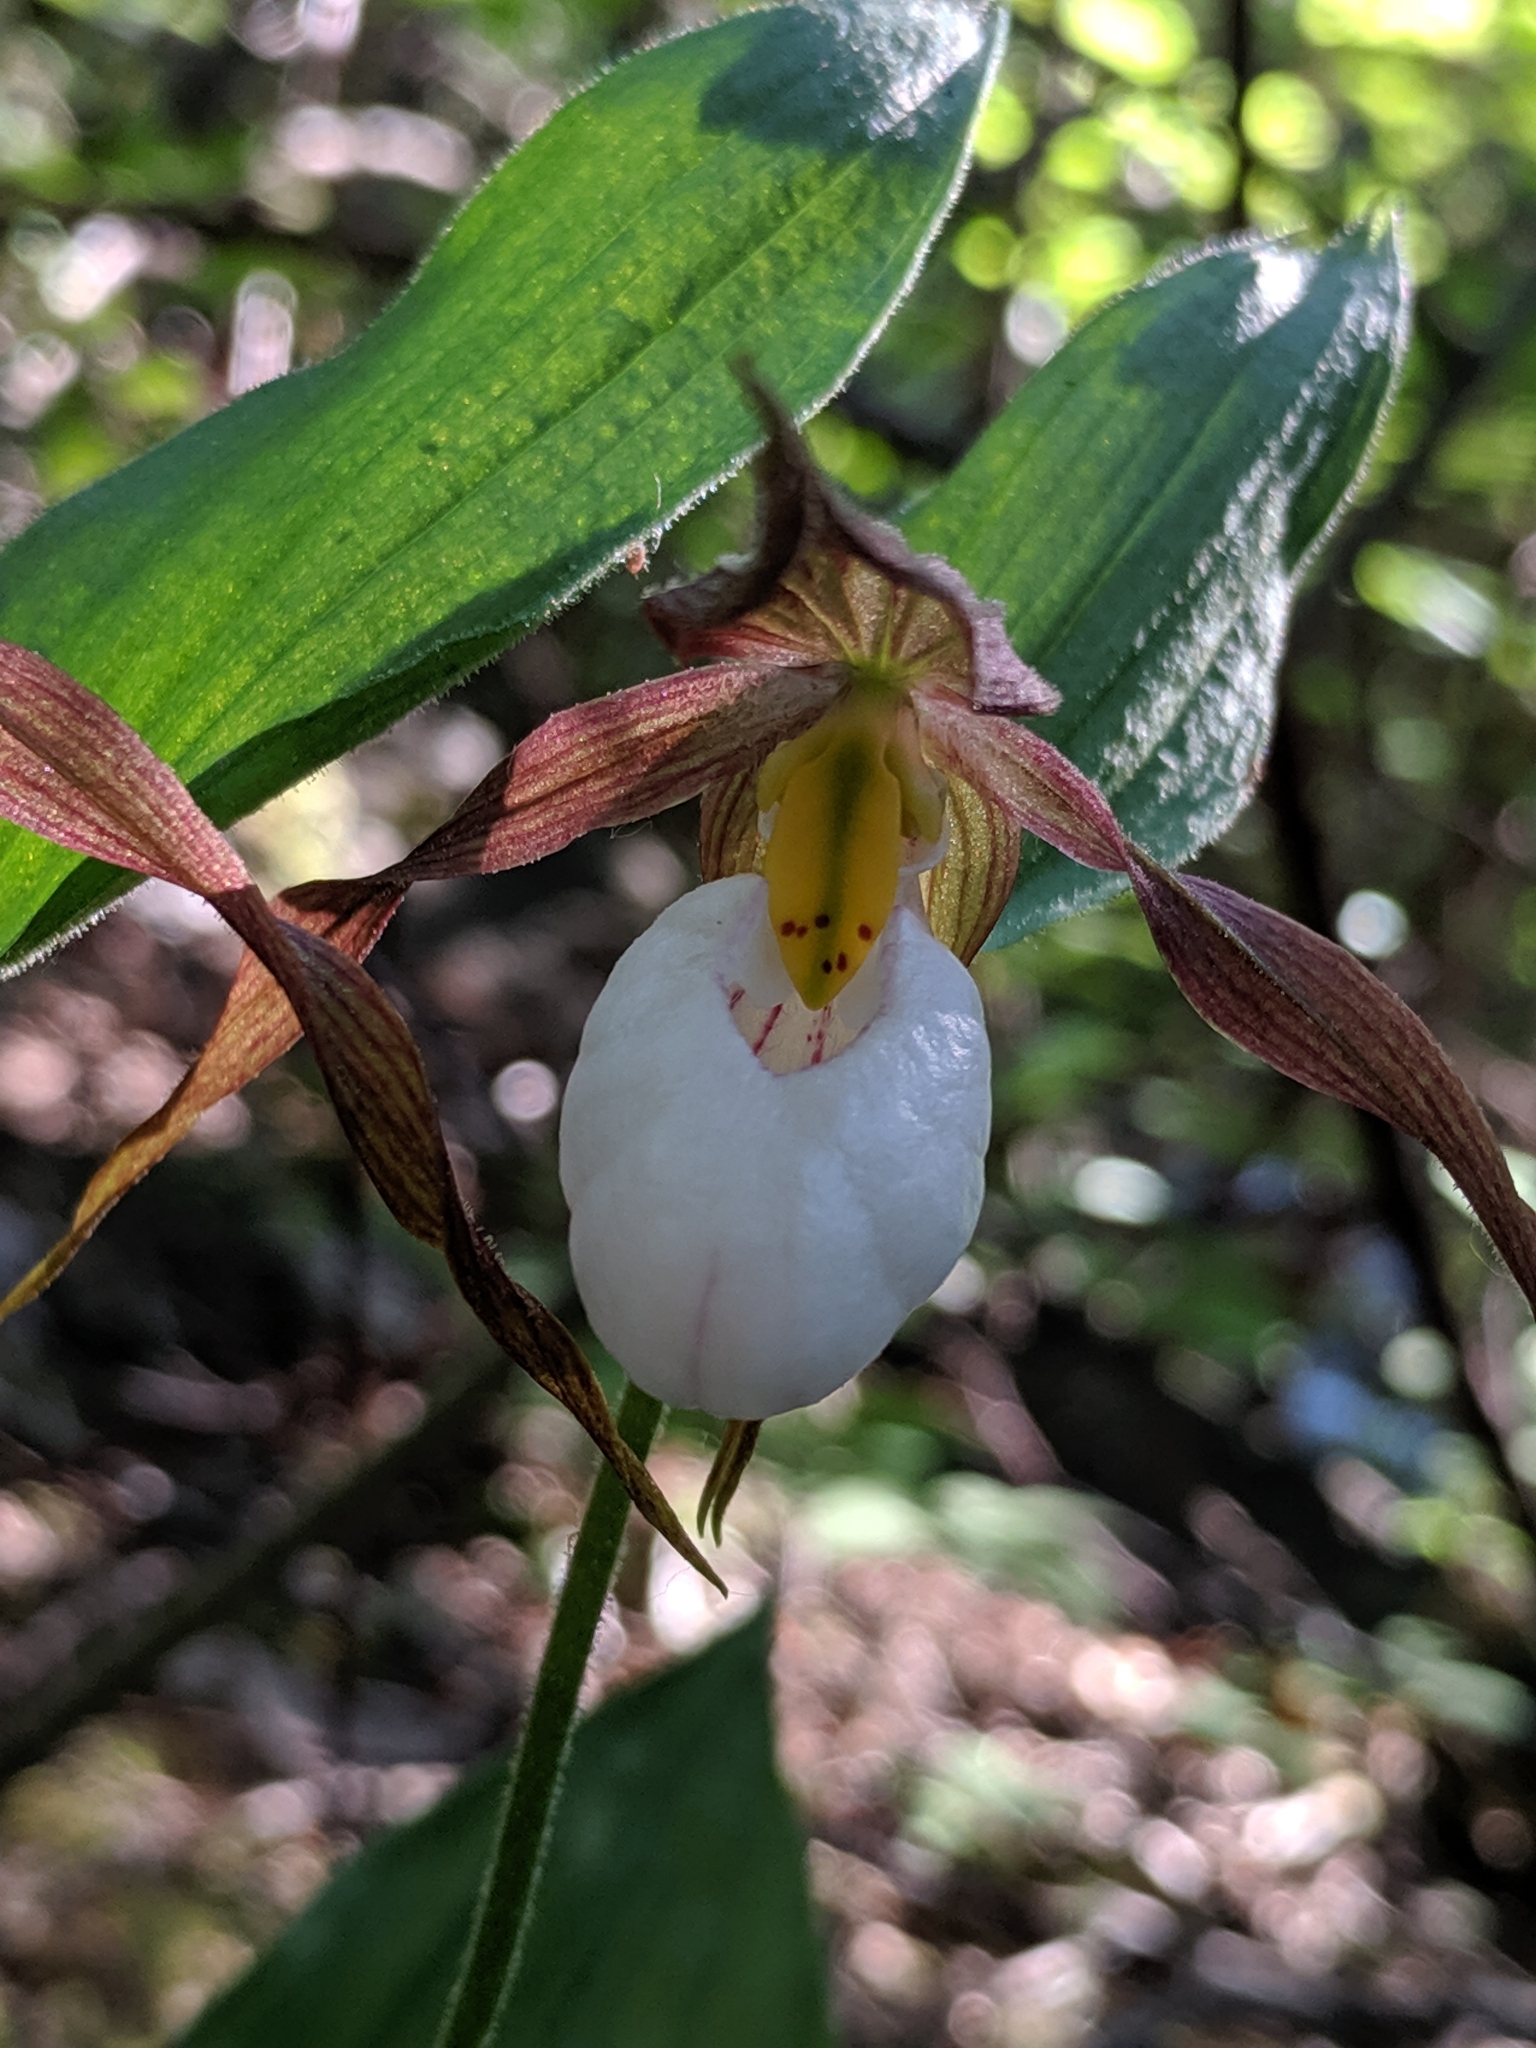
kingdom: Plantae
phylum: Tracheophyta
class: Liliopsida
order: Asparagales
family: Orchidaceae
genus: Cypripedium
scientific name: Cypripedium montanum
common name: Mountain lady's-slipper
